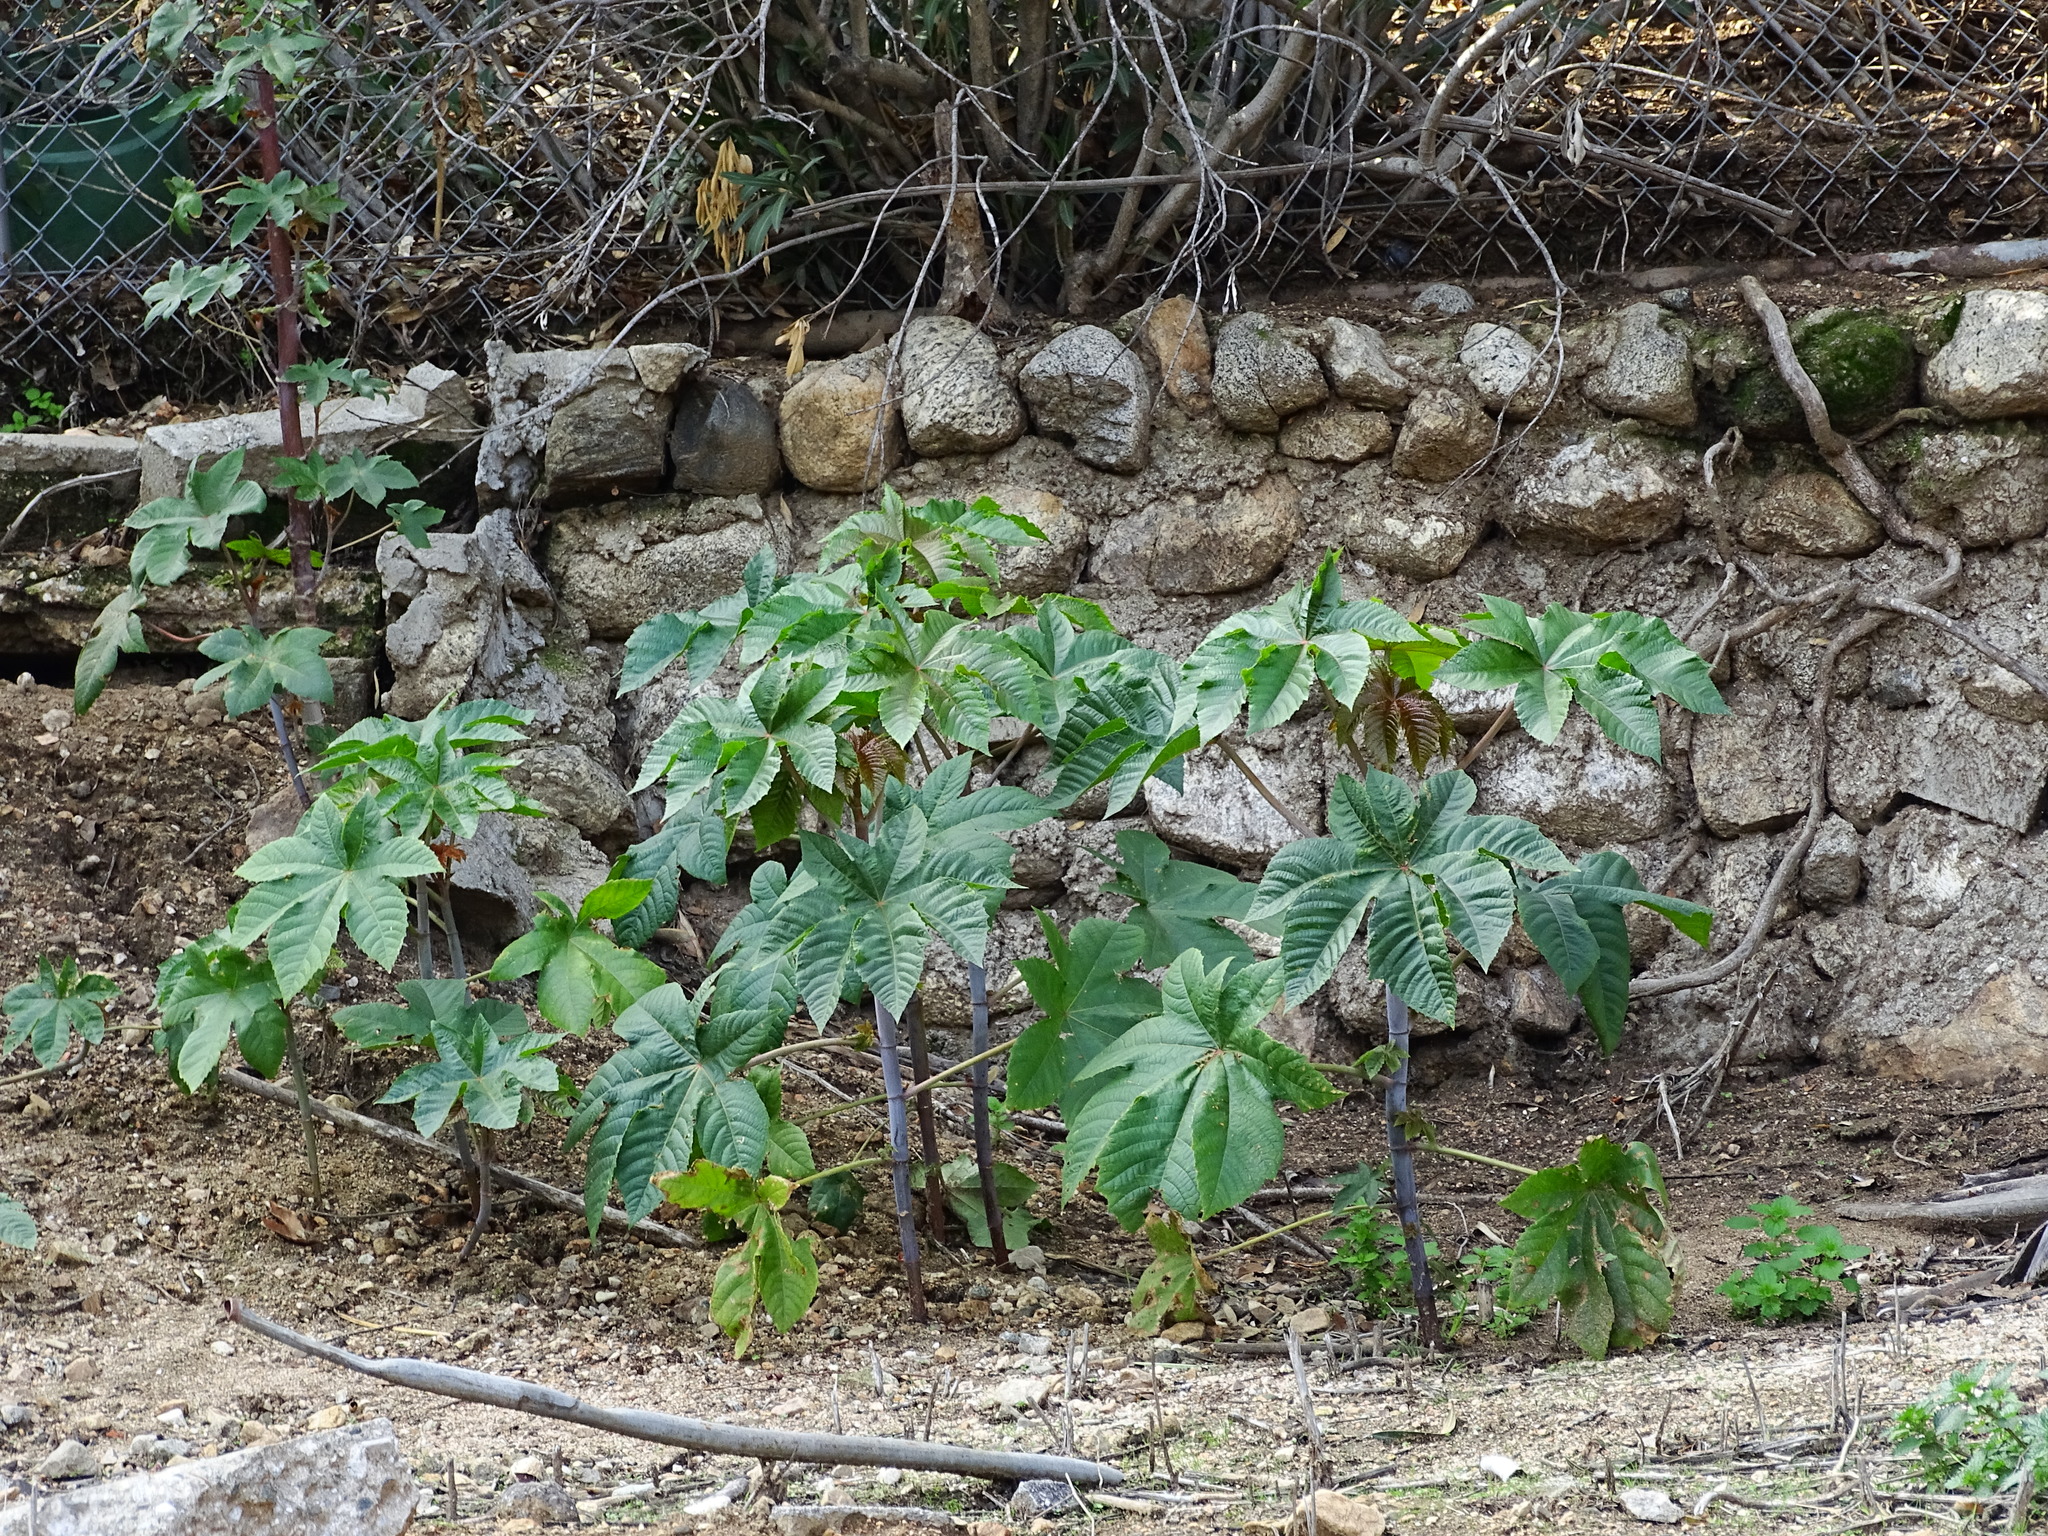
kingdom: Plantae
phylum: Tracheophyta
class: Magnoliopsida
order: Malpighiales
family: Euphorbiaceae
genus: Ricinus
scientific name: Ricinus communis
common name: Castor-oil-plant
